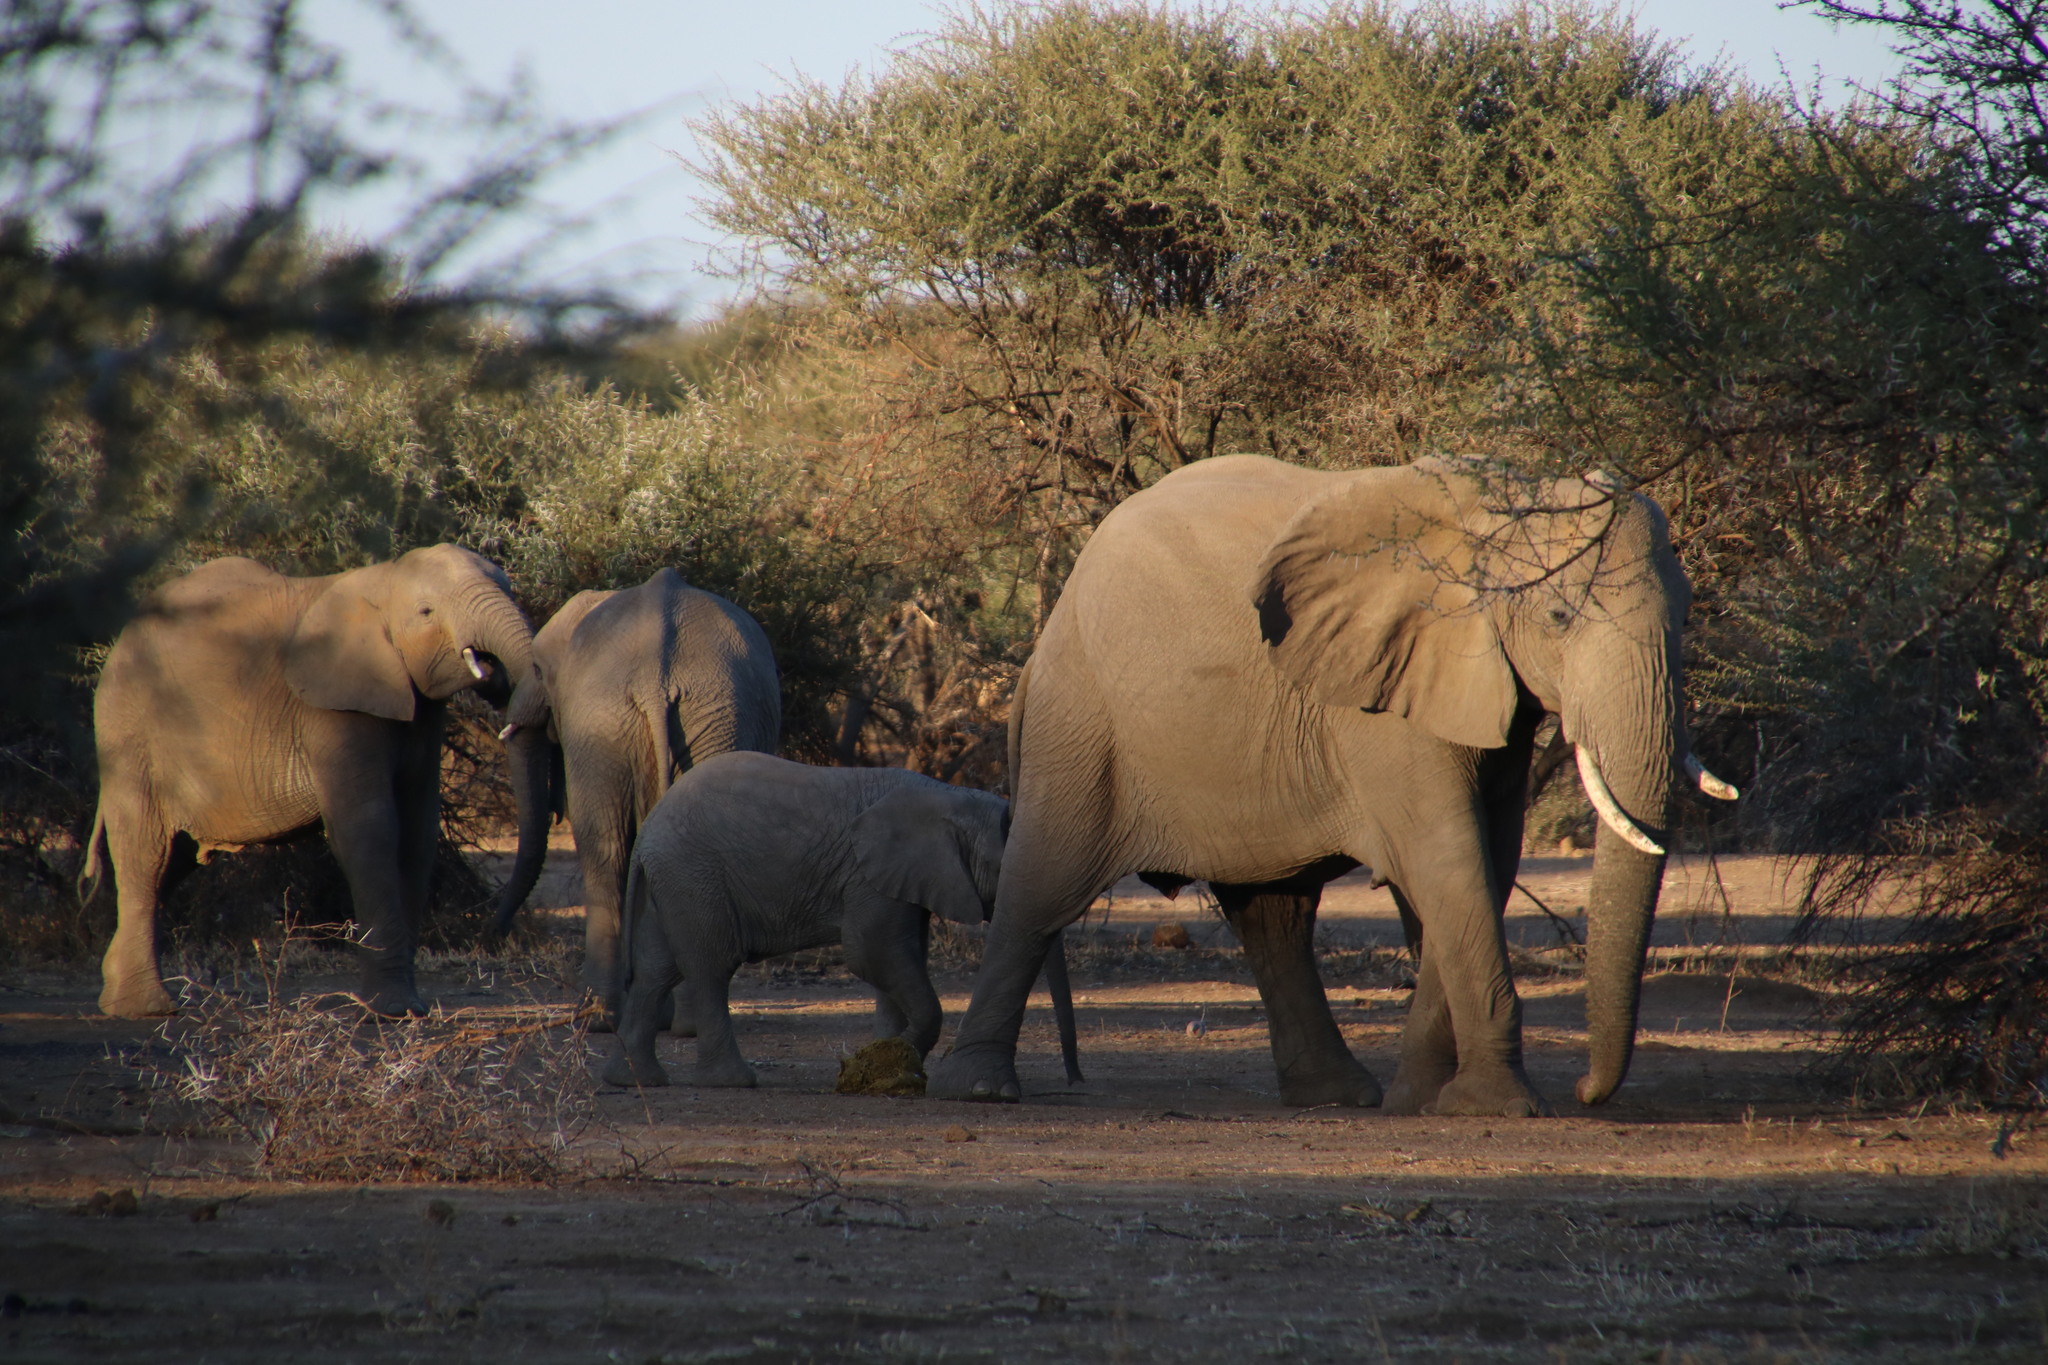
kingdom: Animalia
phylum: Chordata
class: Mammalia
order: Proboscidea
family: Elephantidae
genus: Loxodonta
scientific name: Loxodonta africana
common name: African elephant
